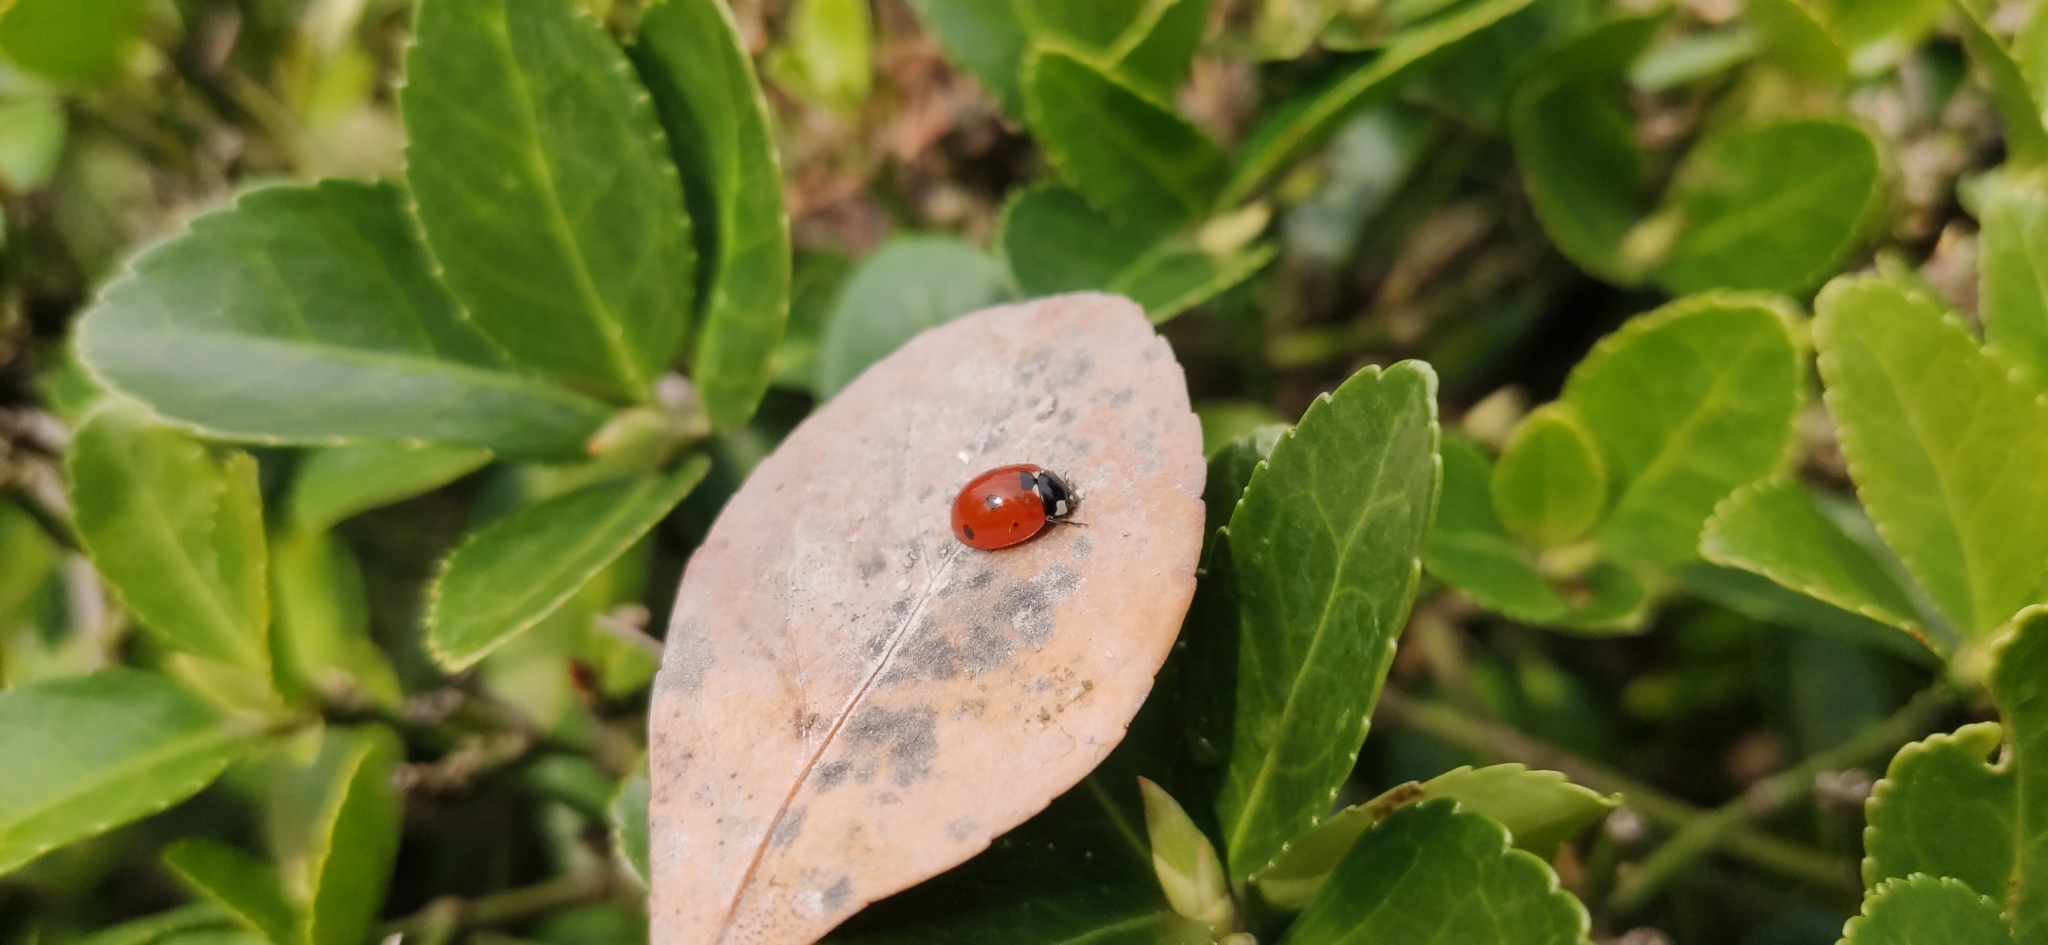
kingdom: Animalia
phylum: Arthropoda
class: Insecta
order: Coleoptera
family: Coccinellidae
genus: Coccinella
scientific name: Coccinella septempunctata
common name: Sevenspotted lady beetle
